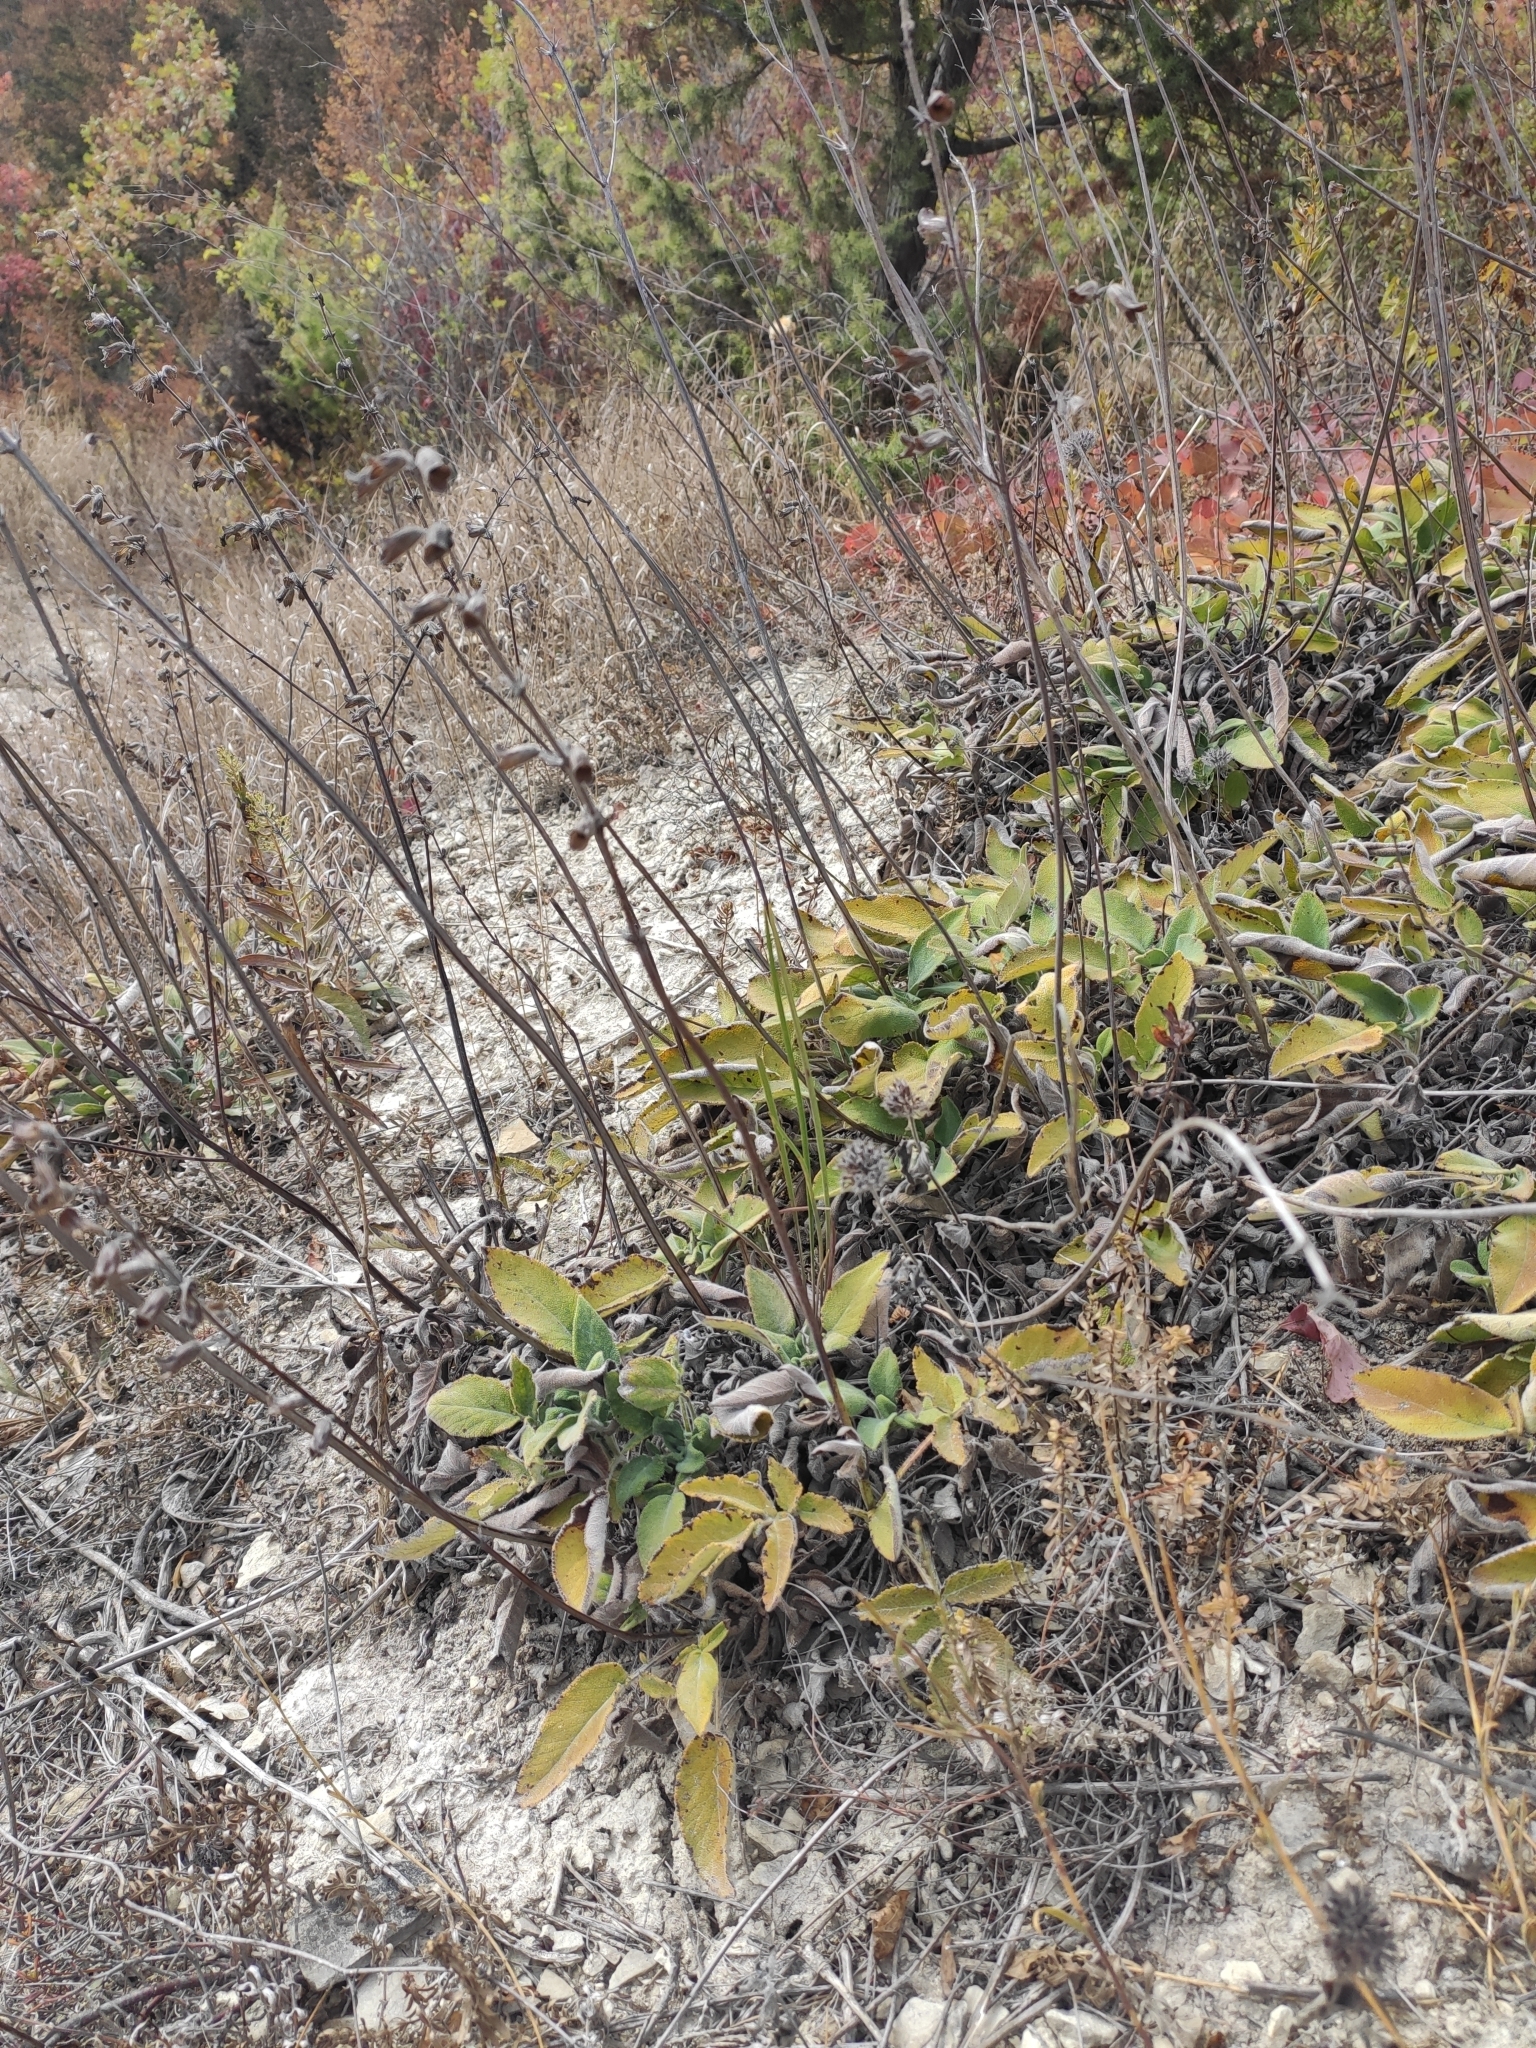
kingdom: Plantae
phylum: Tracheophyta
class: Magnoliopsida
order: Lamiales
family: Lamiaceae
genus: Salvia
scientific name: Salvia ringens
